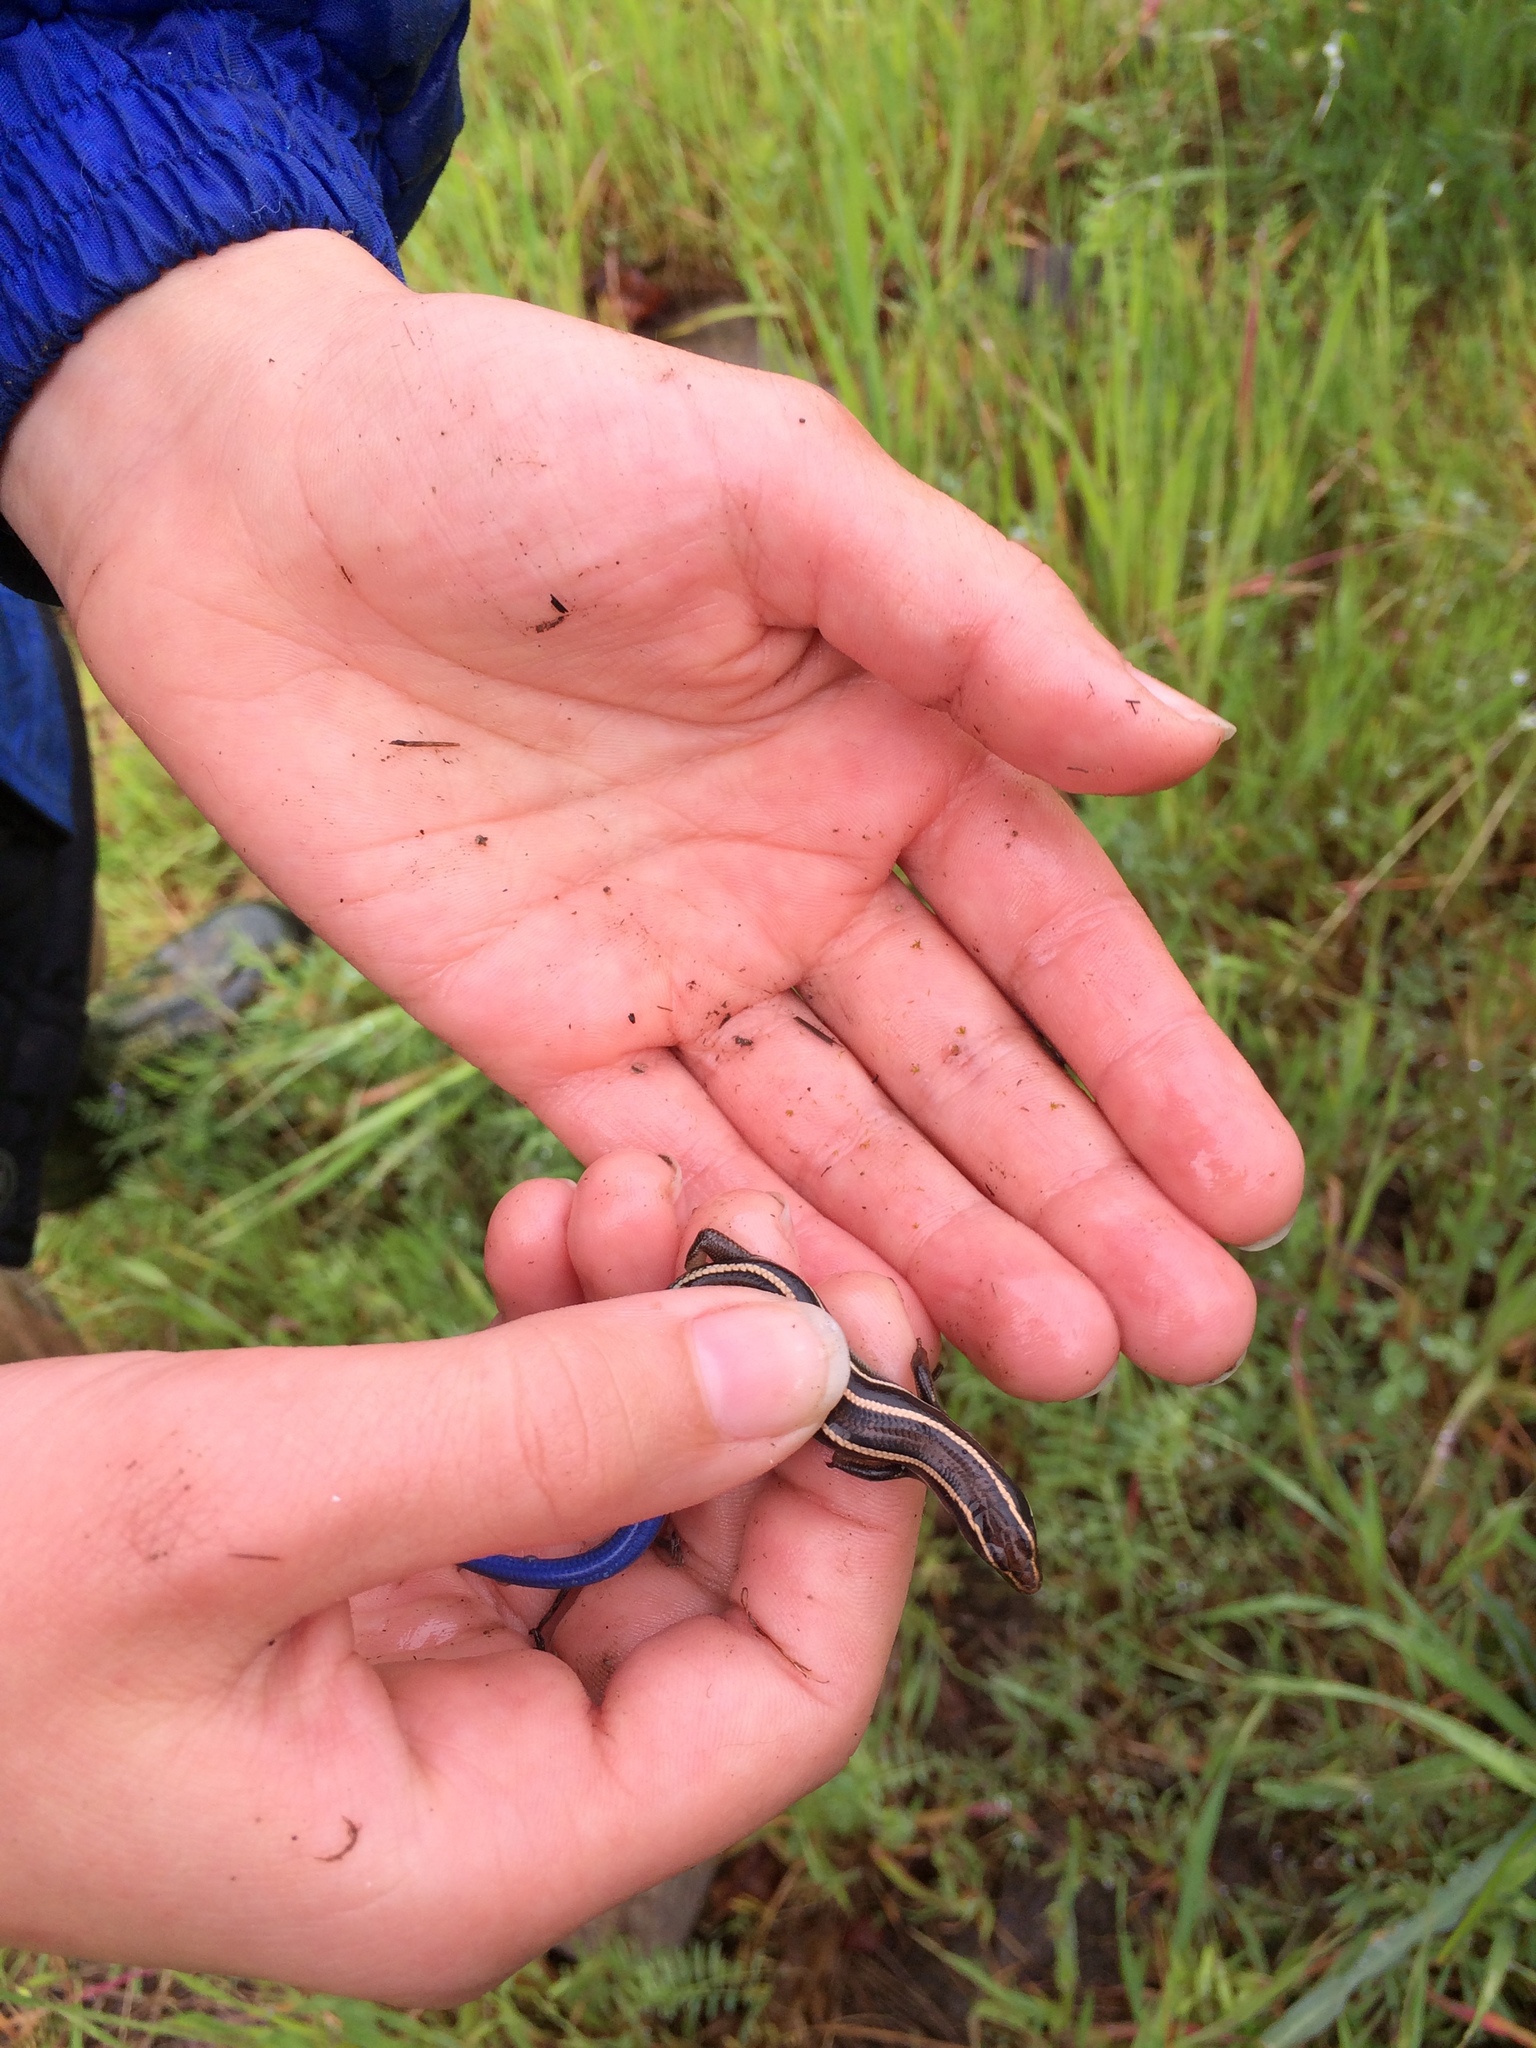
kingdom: Animalia
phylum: Chordata
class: Squamata
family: Scincidae
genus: Plestiodon
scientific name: Plestiodon skiltonianus
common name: Coronado island skink [interparietalis]
